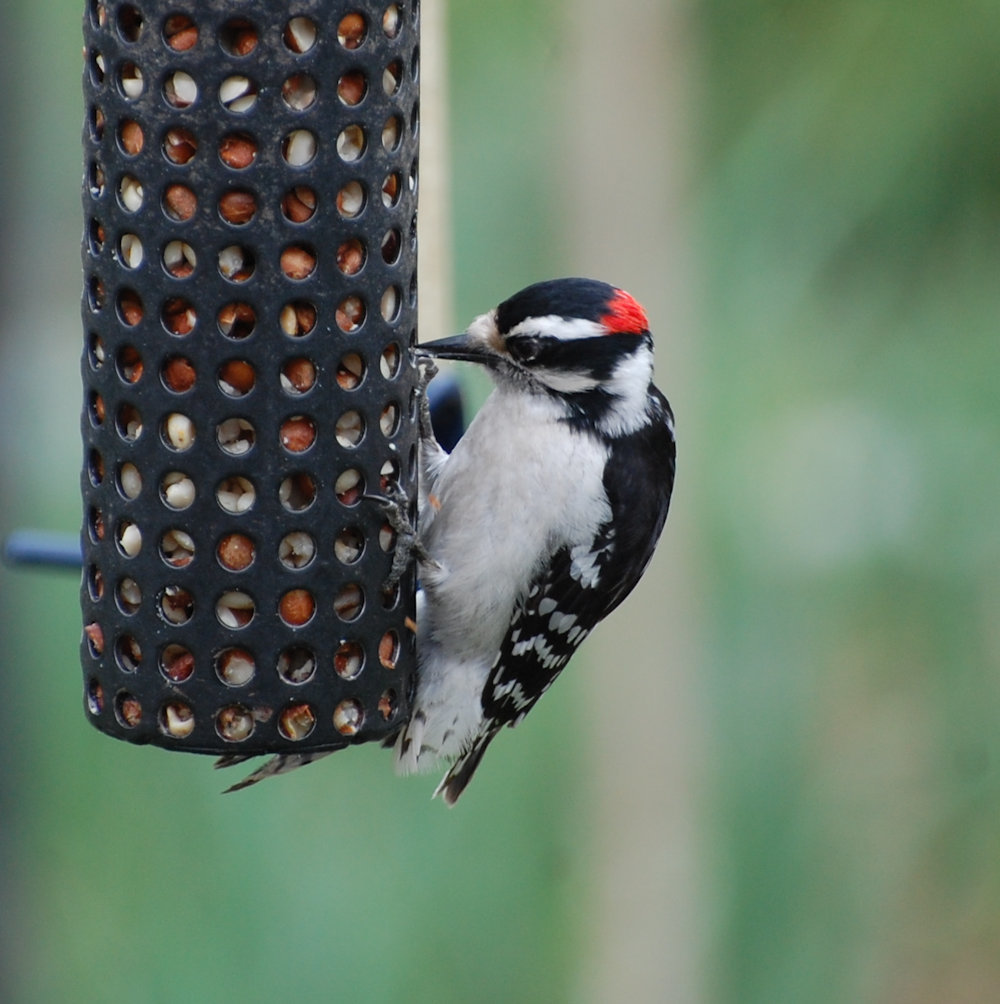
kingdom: Animalia
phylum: Chordata
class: Aves
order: Piciformes
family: Picidae
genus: Dryobates
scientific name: Dryobates pubescens
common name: Downy woodpecker
